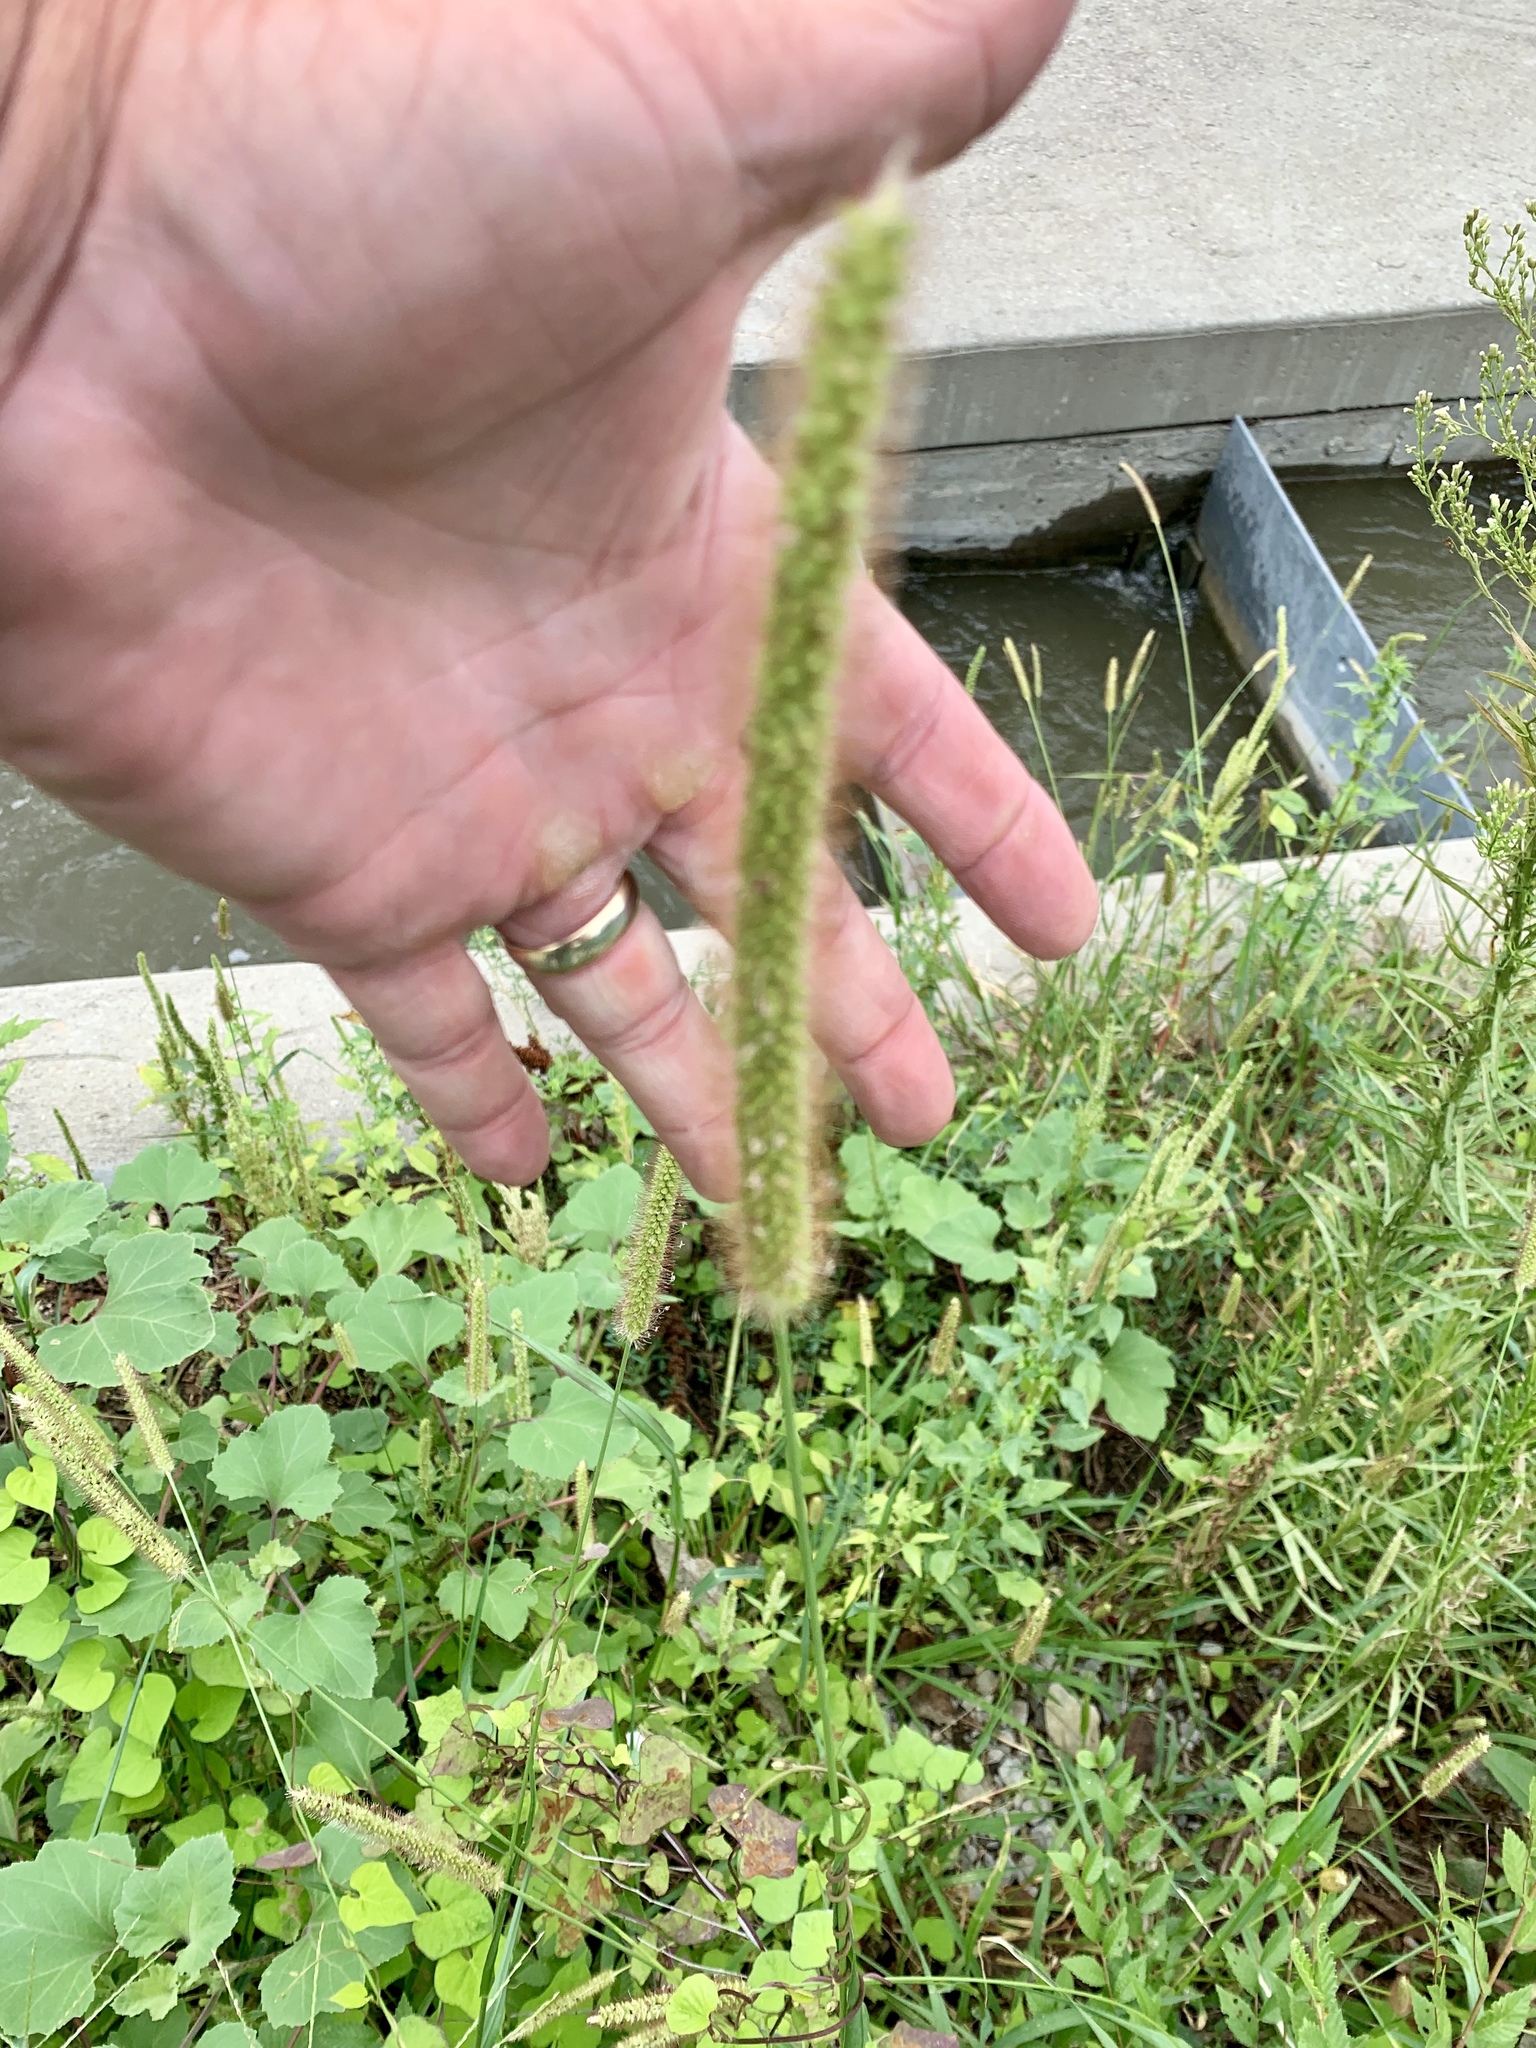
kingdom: Plantae
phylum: Tracheophyta
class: Liliopsida
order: Poales
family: Poaceae
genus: Setaria
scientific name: Setaria pumila
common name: Yellow bristle-grass
